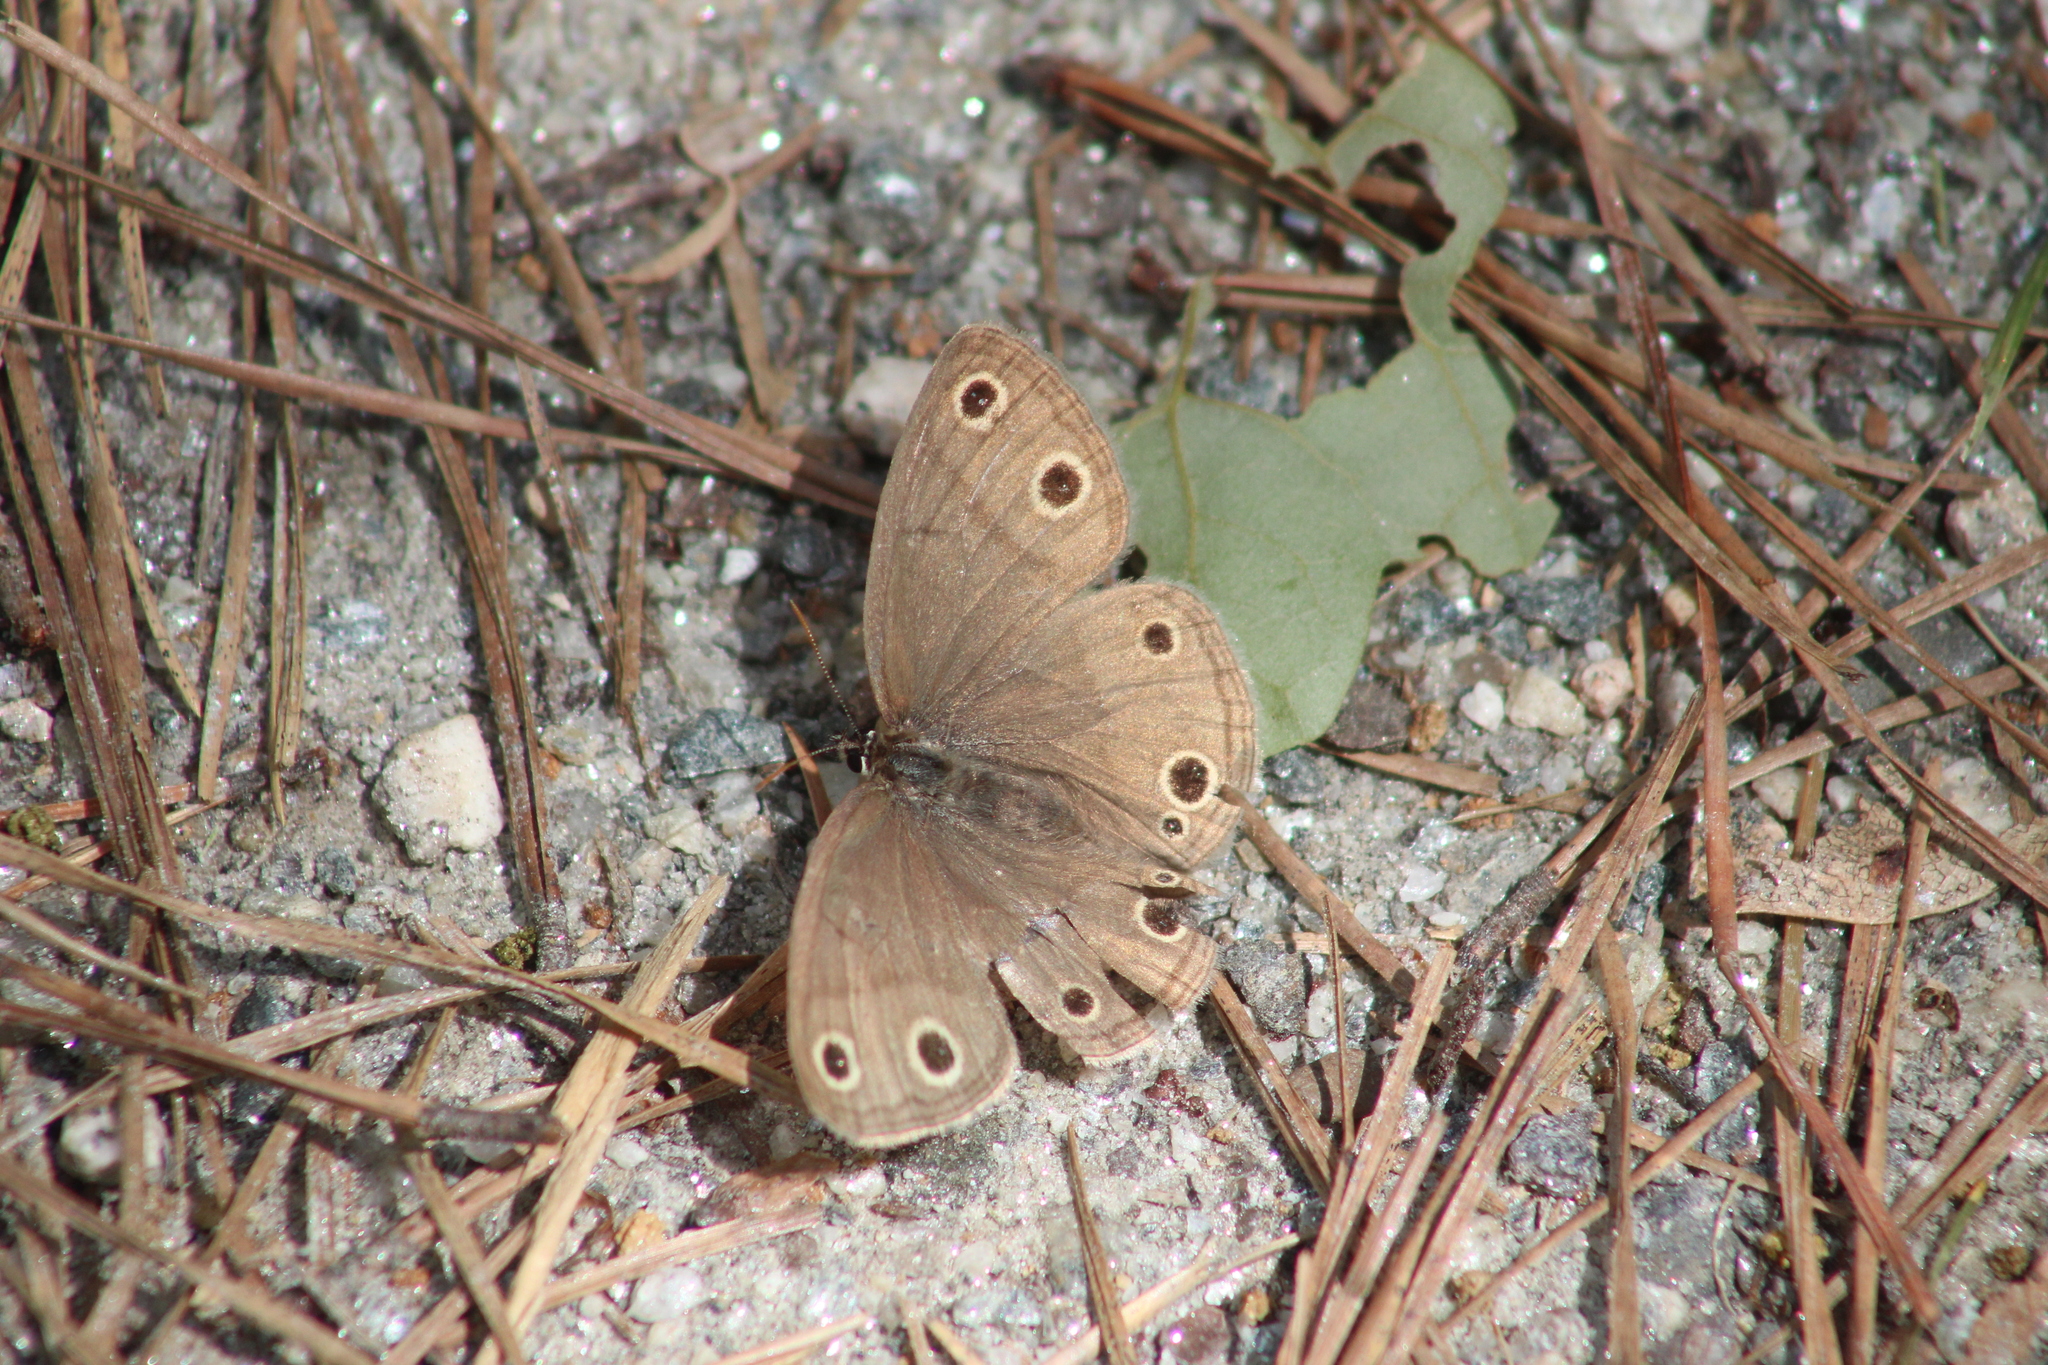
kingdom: Animalia
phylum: Arthropoda
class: Insecta
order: Lepidoptera
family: Nymphalidae
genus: Euptychia
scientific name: Euptychia cymela
